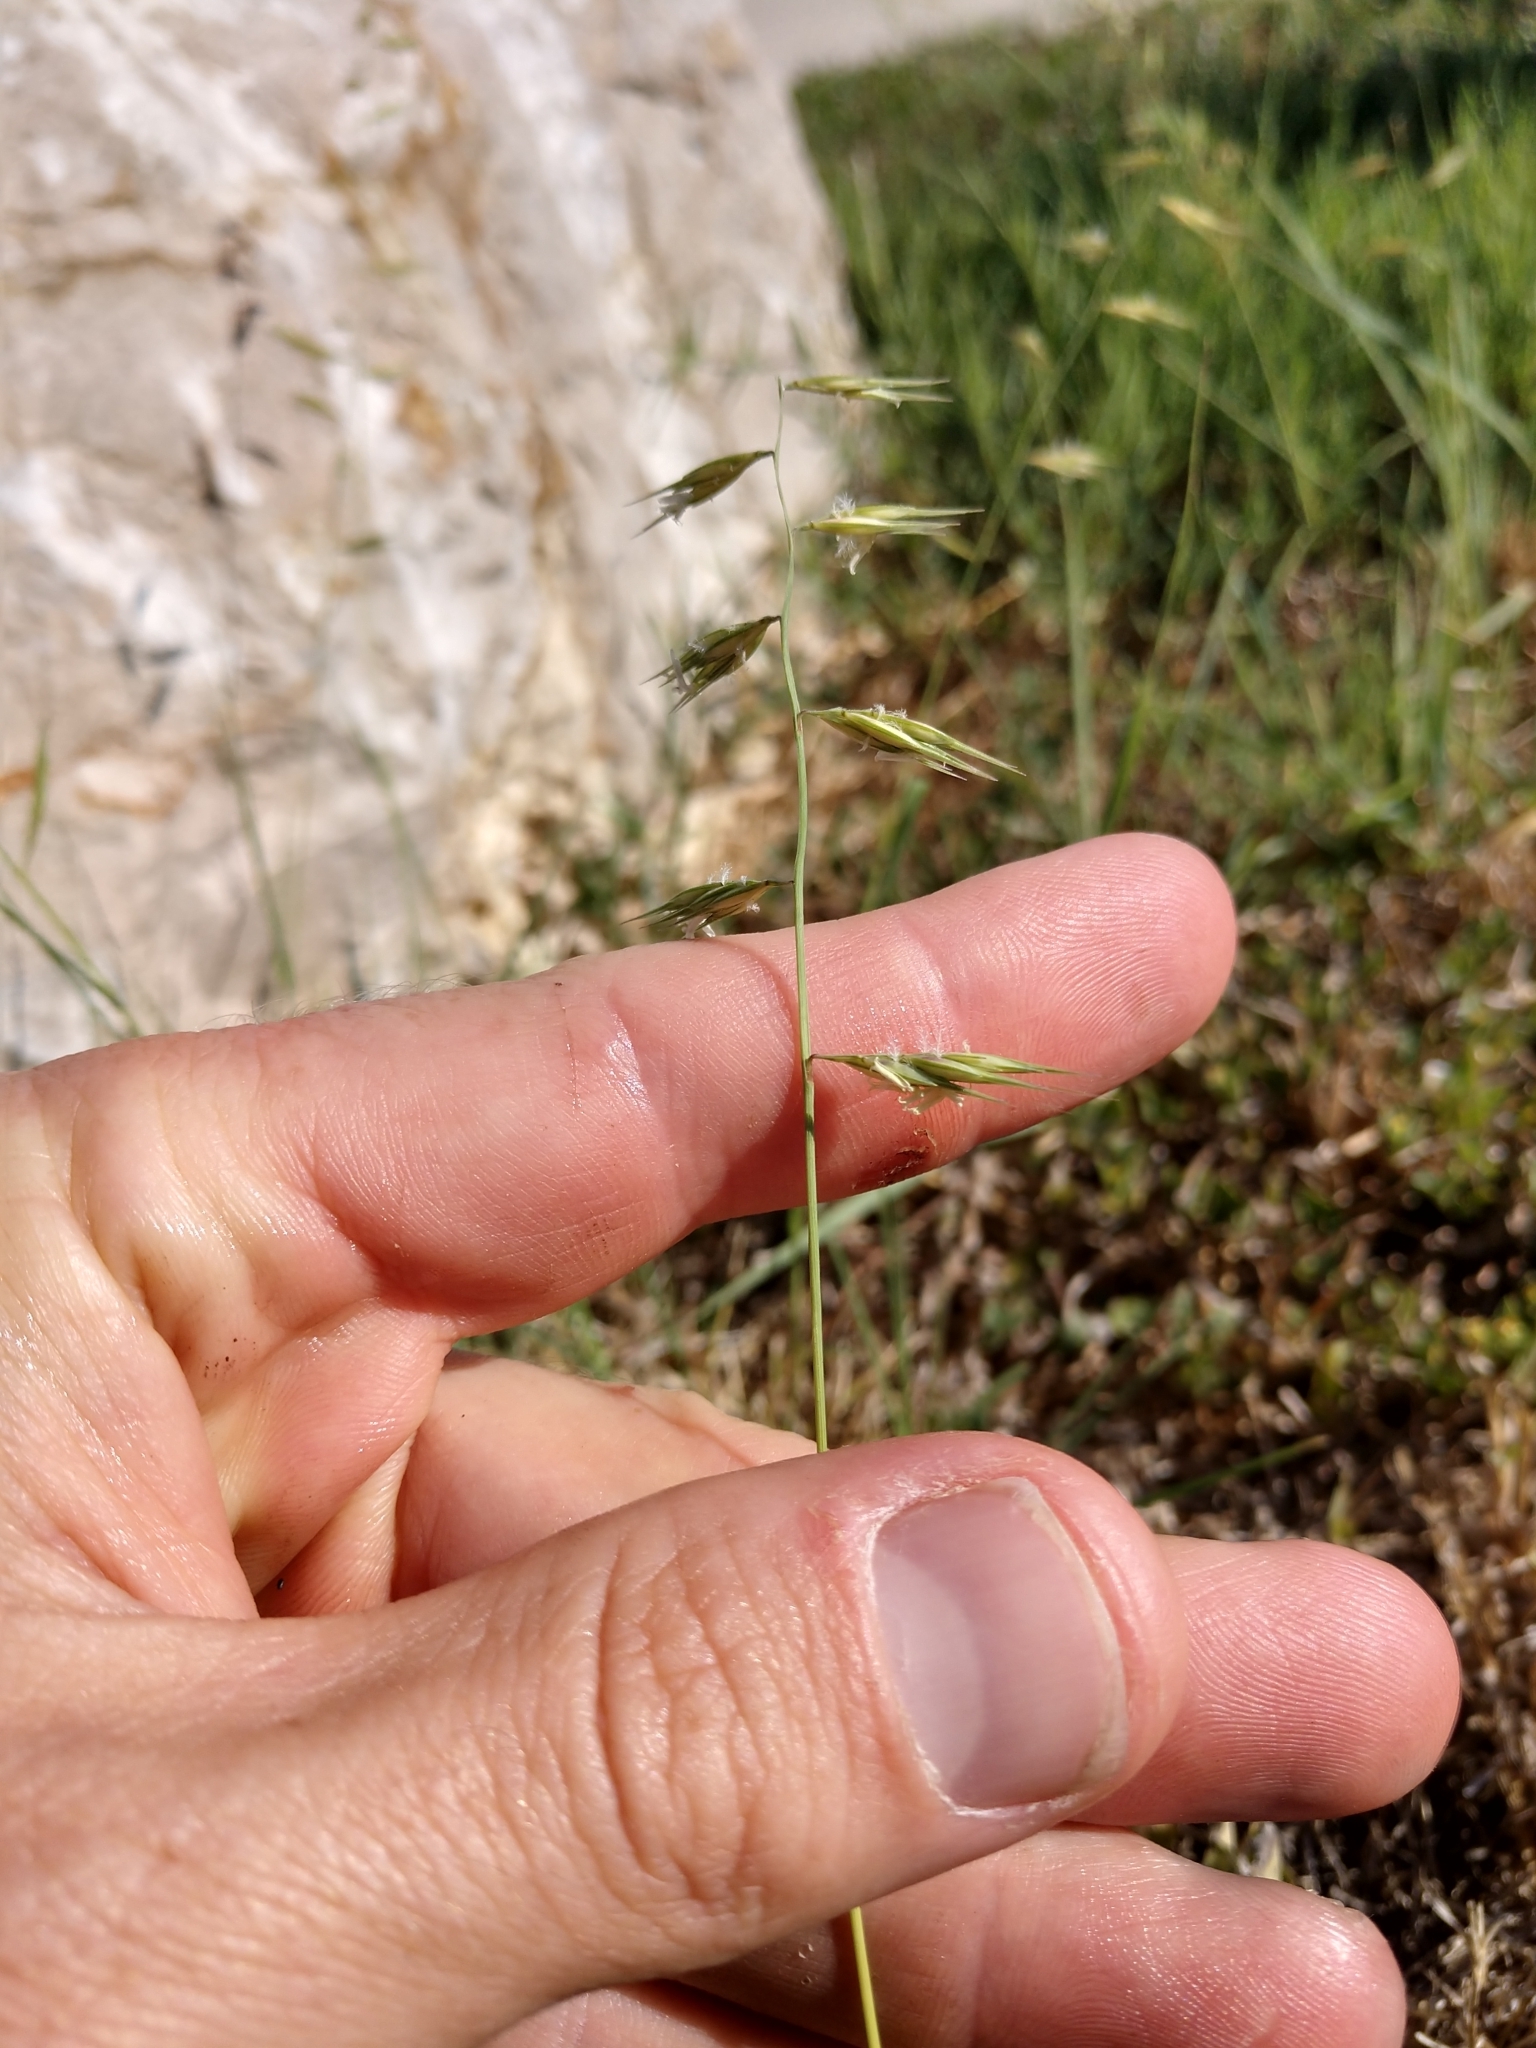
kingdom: Plantae
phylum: Tracheophyta
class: Liliopsida
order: Poales
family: Poaceae
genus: Bouteloua
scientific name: Bouteloua repens
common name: Slender grama
